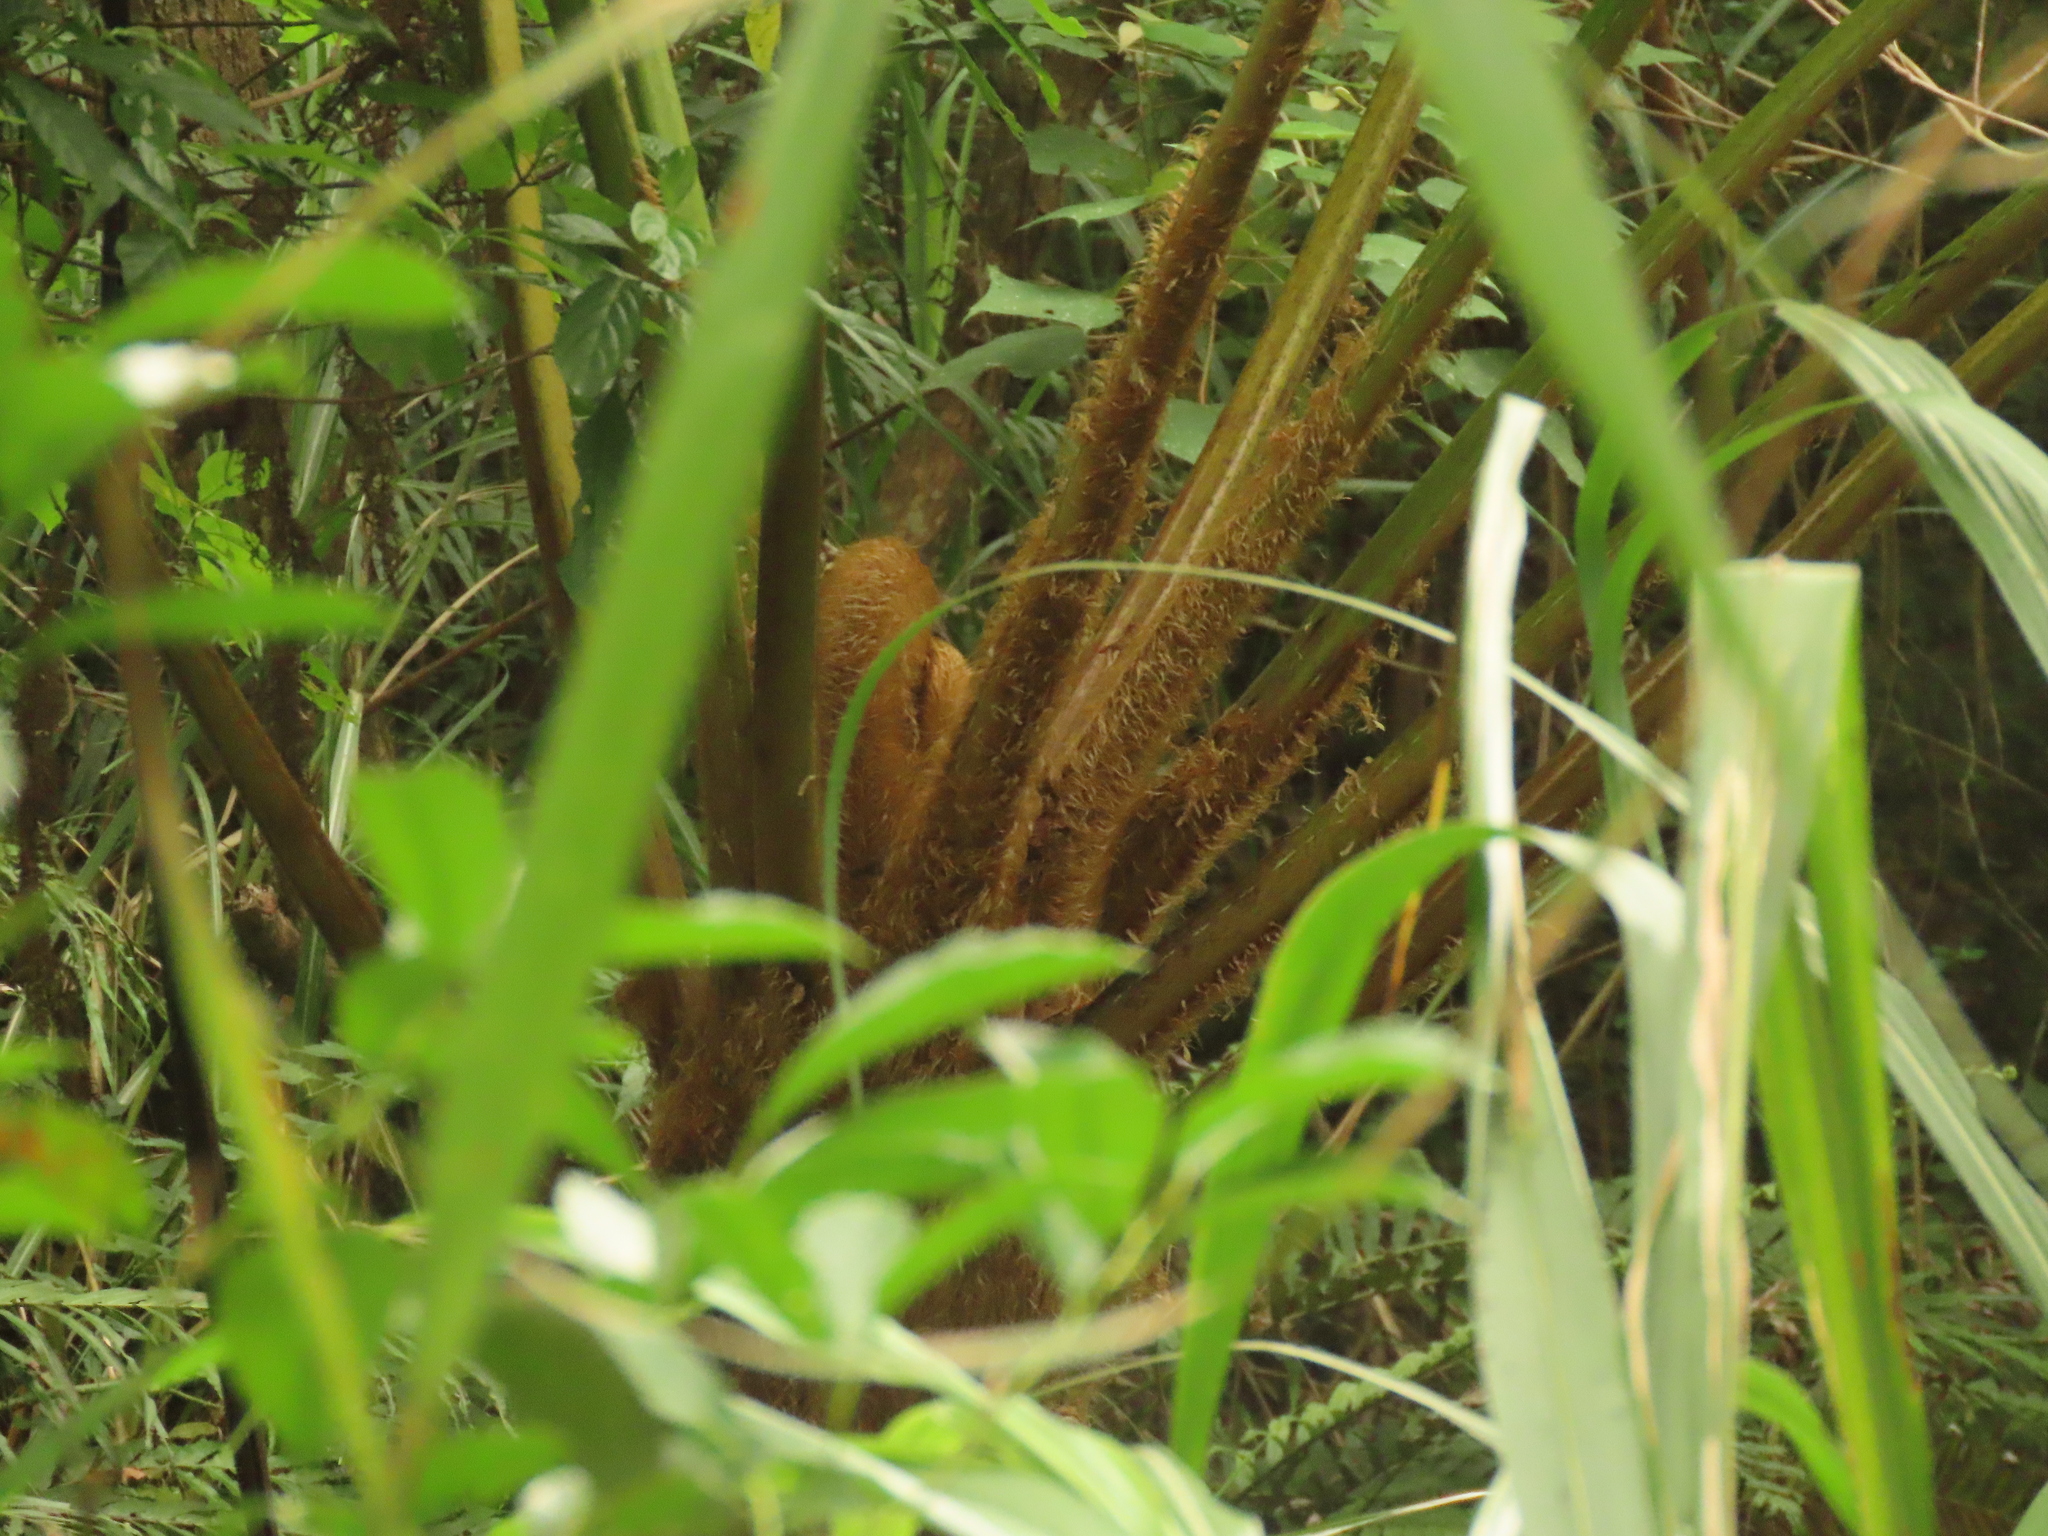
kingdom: Plantae
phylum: Tracheophyta
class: Polypodiopsida
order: Cyatheales
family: Cyatheaceae
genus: Alsophila
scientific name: Alsophila lepifera
